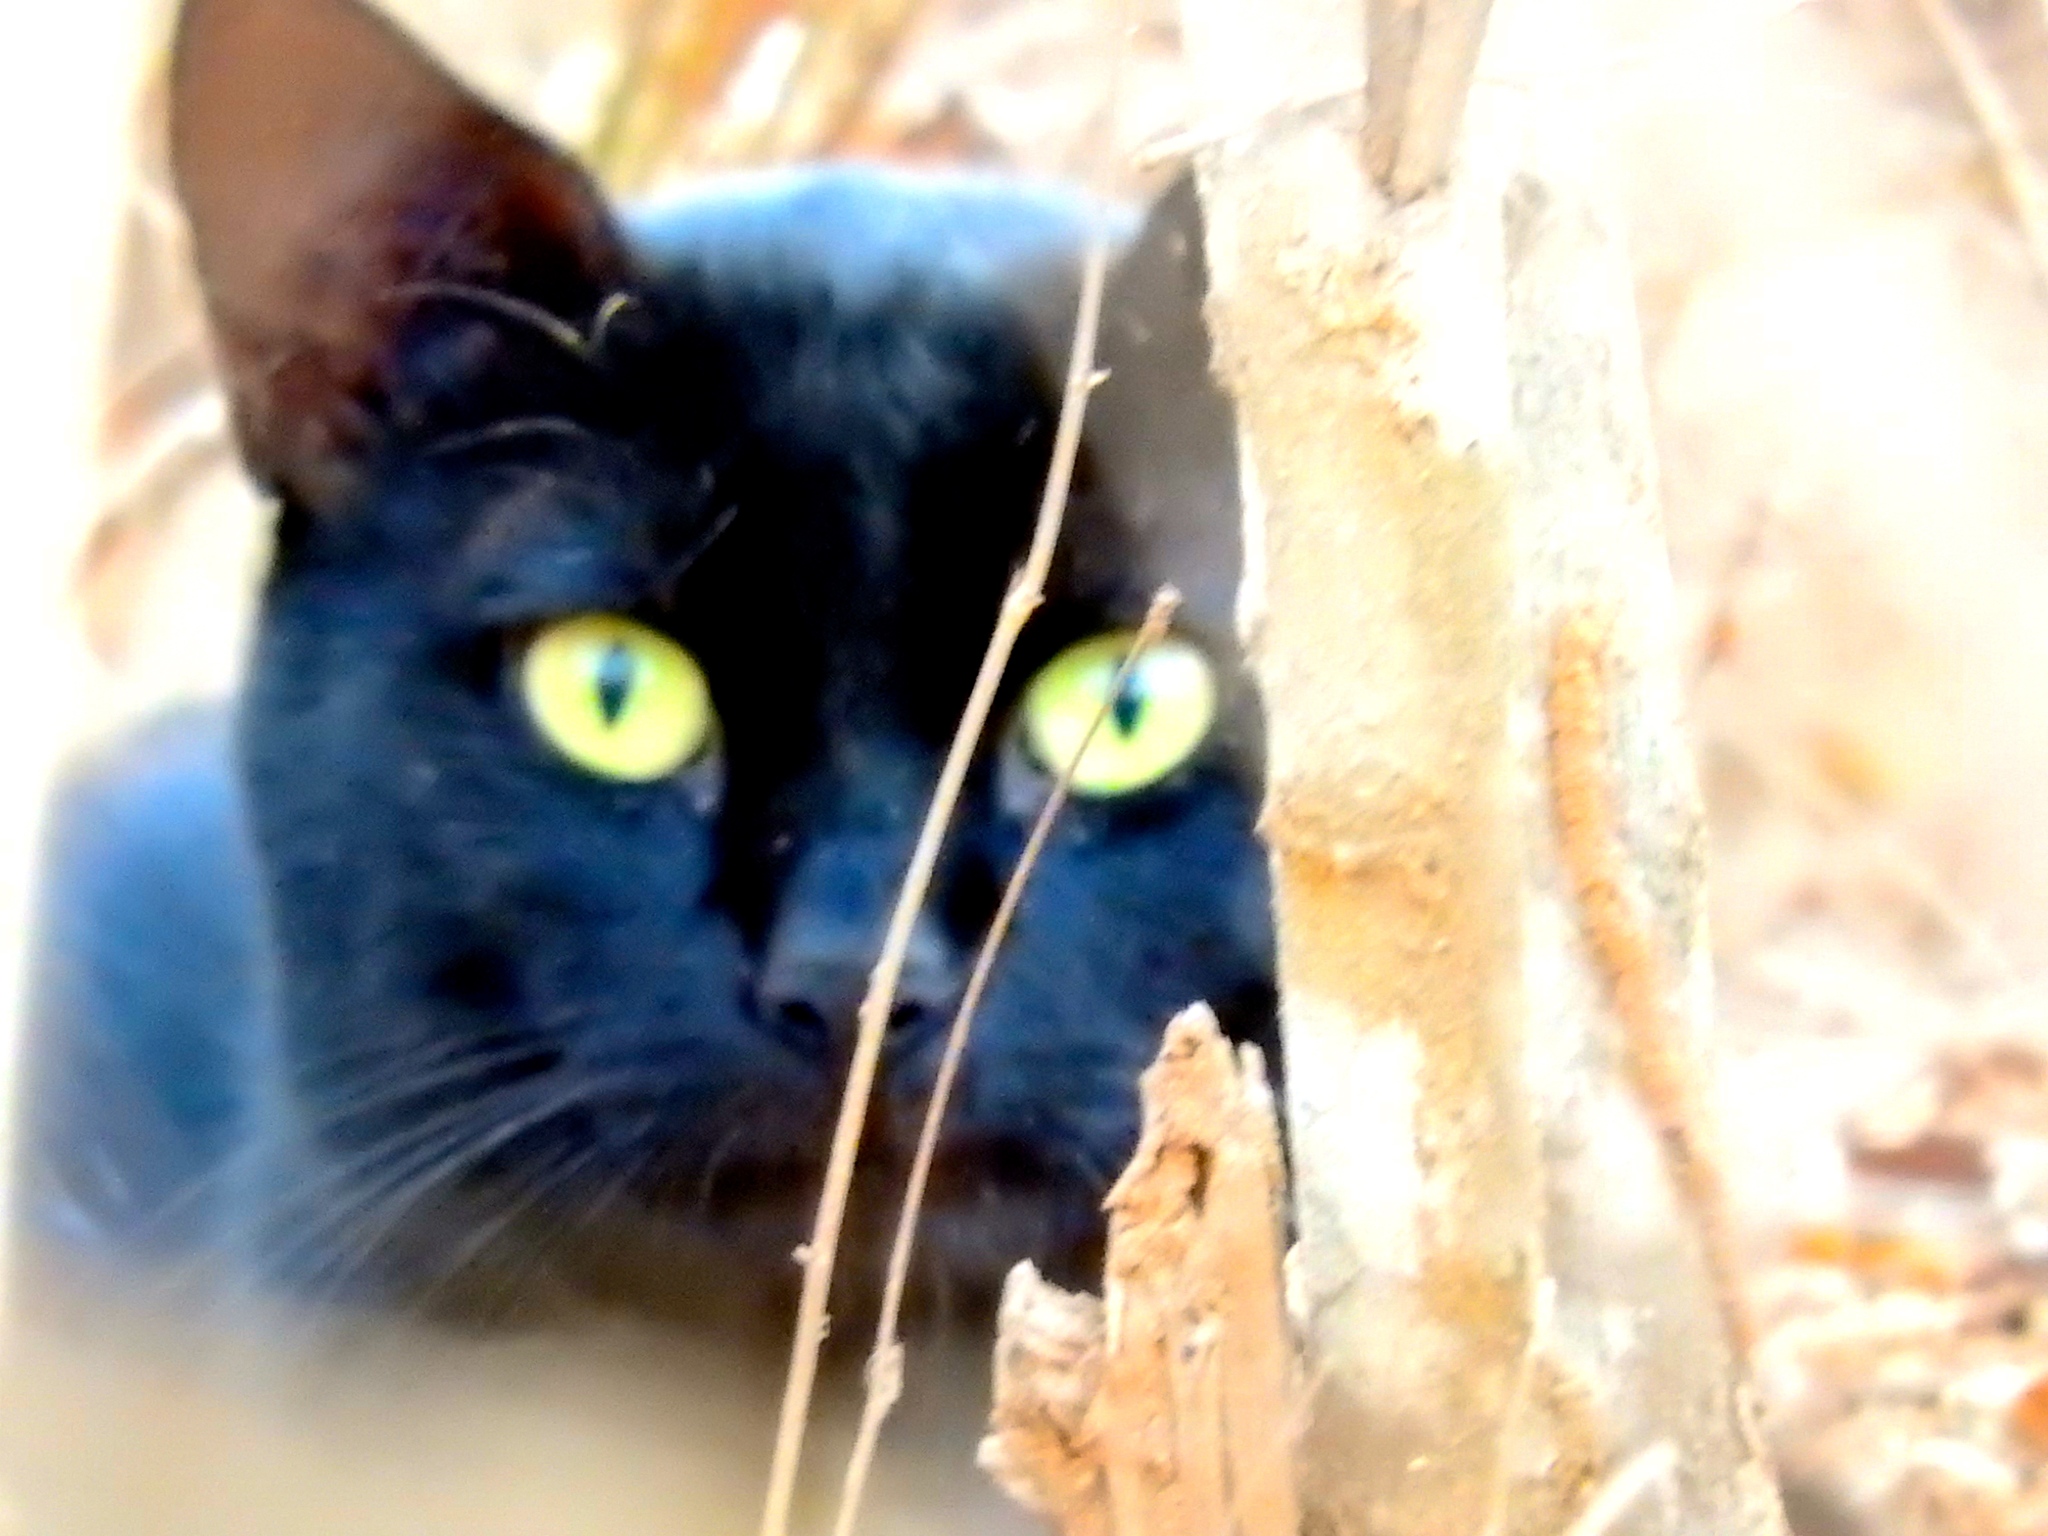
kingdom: Animalia
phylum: Chordata
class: Mammalia
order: Carnivora
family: Felidae
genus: Felis
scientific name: Felis catus
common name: Domestic cat
